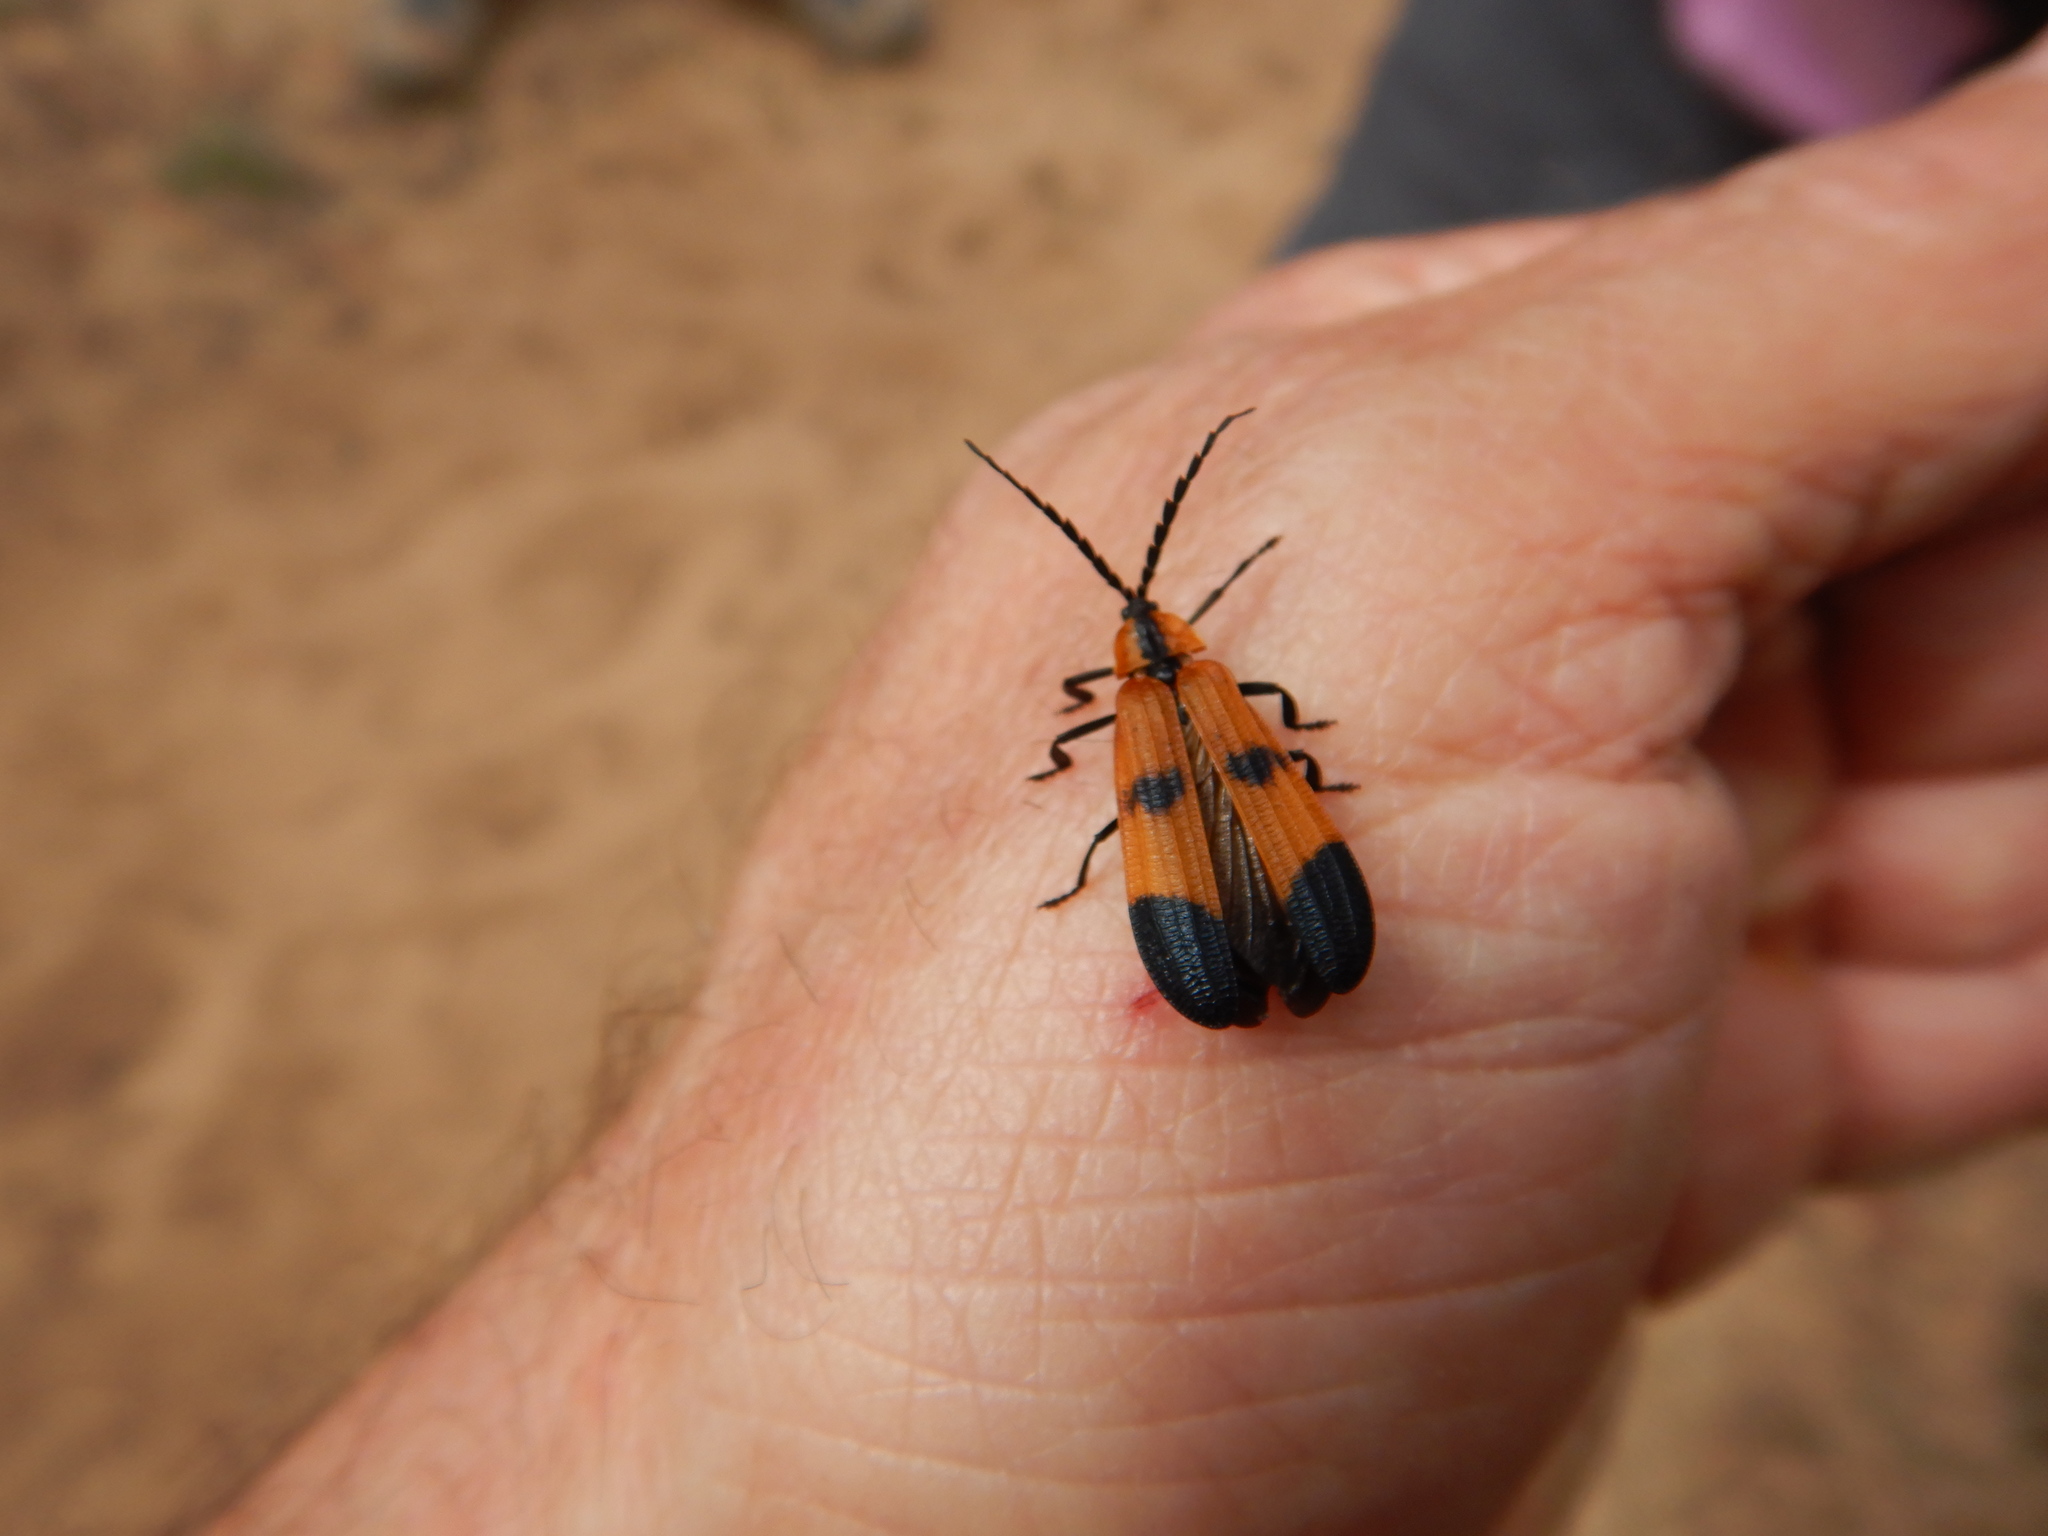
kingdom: Animalia
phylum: Arthropoda
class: Insecta
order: Coleoptera
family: Lycidae
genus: Calopteron
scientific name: Calopteron reticulatum
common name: Banded net-winged beetle
